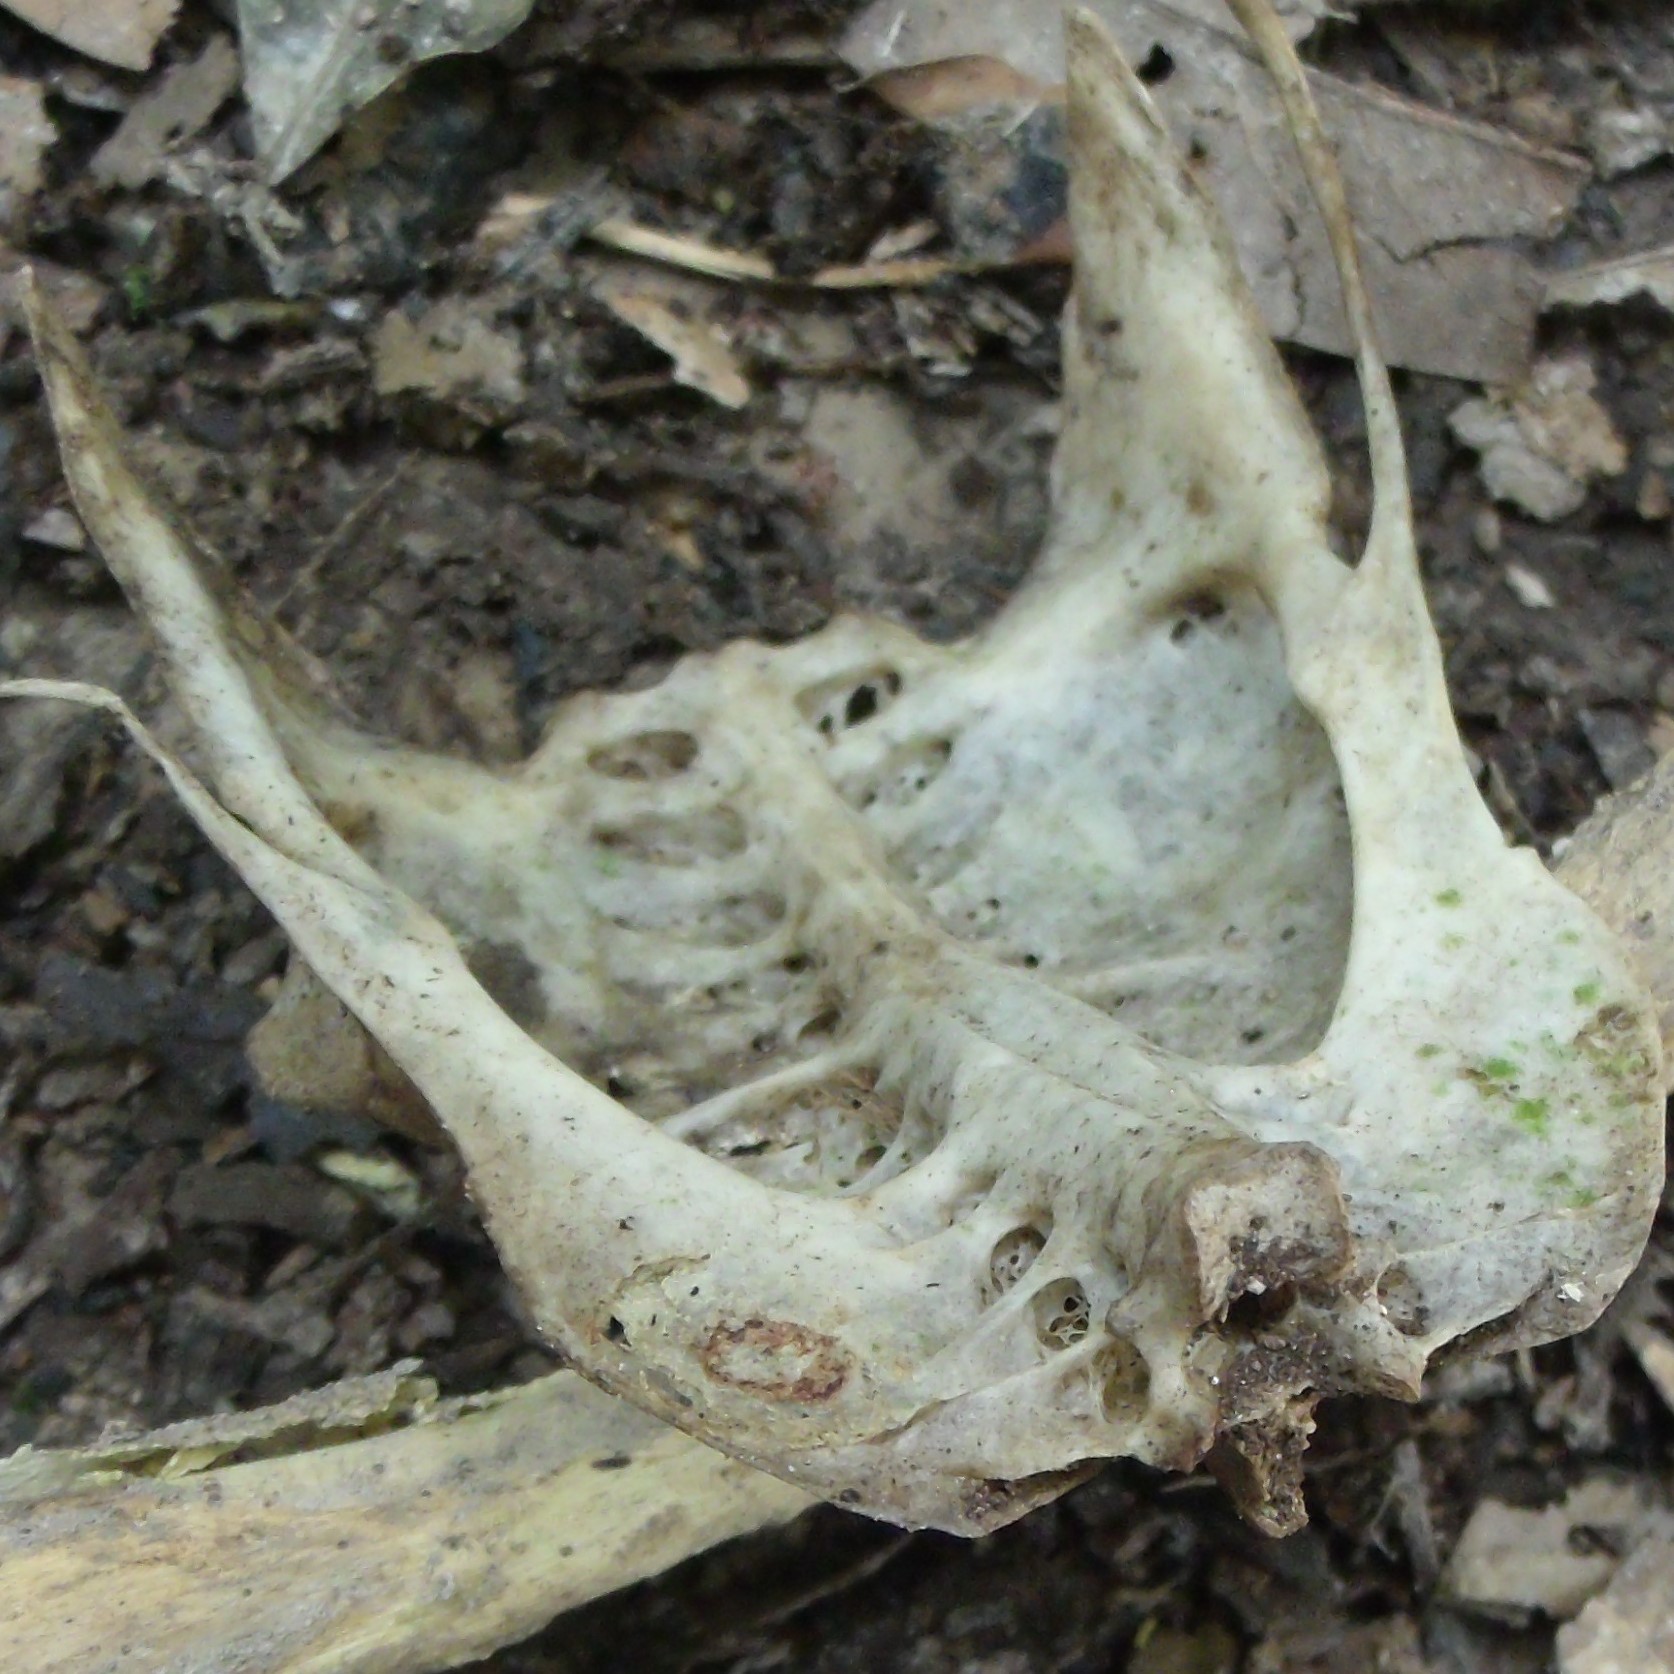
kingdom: Animalia
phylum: Chordata
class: Aves
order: Columbiformes
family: Columbidae
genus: Hemiphaga
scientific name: Hemiphaga novaeseelandiae
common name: New zealand pigeon
